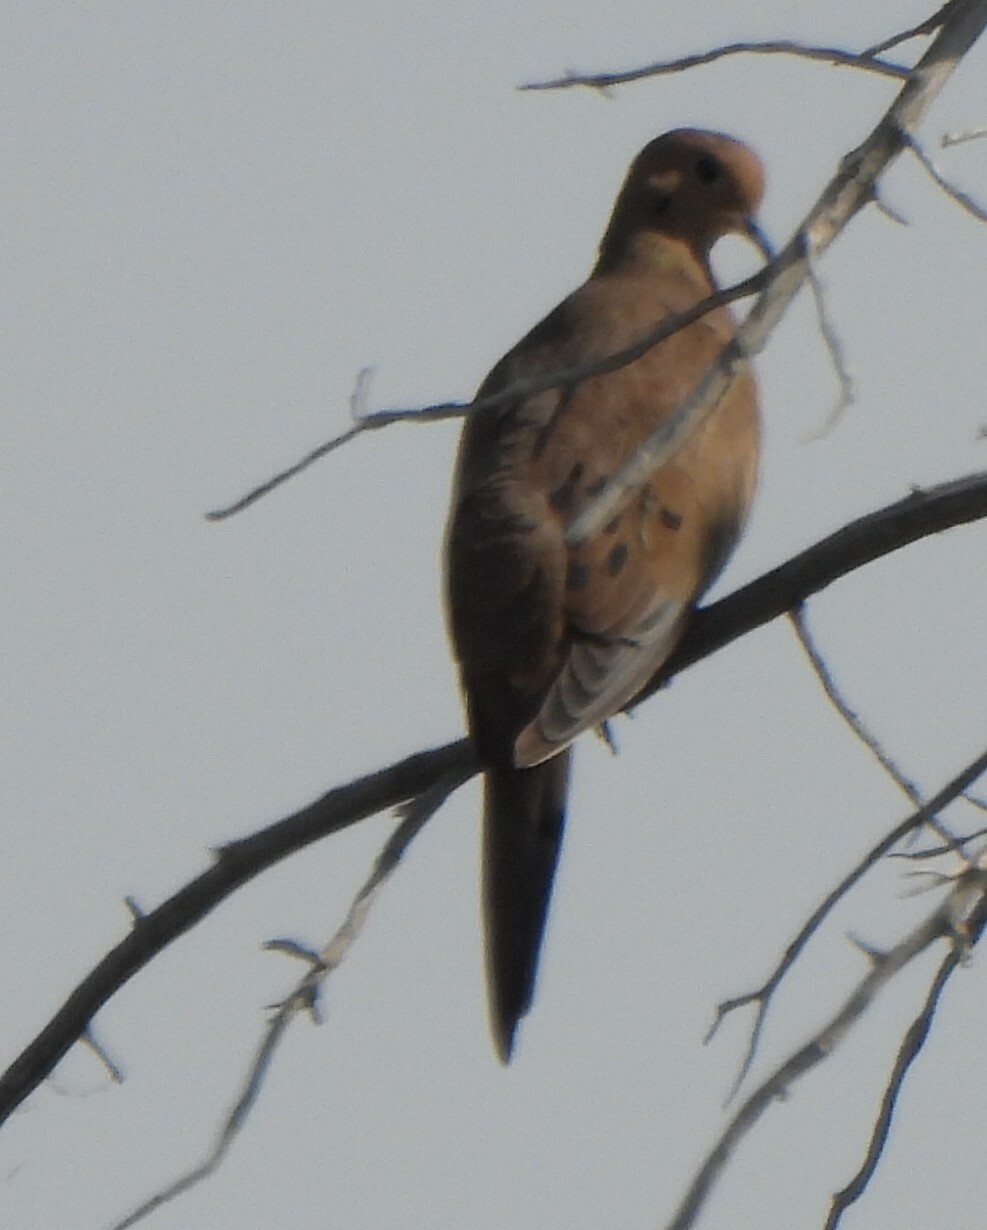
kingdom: Animalia
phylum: Chordata
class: Aves
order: Columbiformes
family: Columbidae
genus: Zenaida
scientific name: Zenaida macroura
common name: Mourning dove
